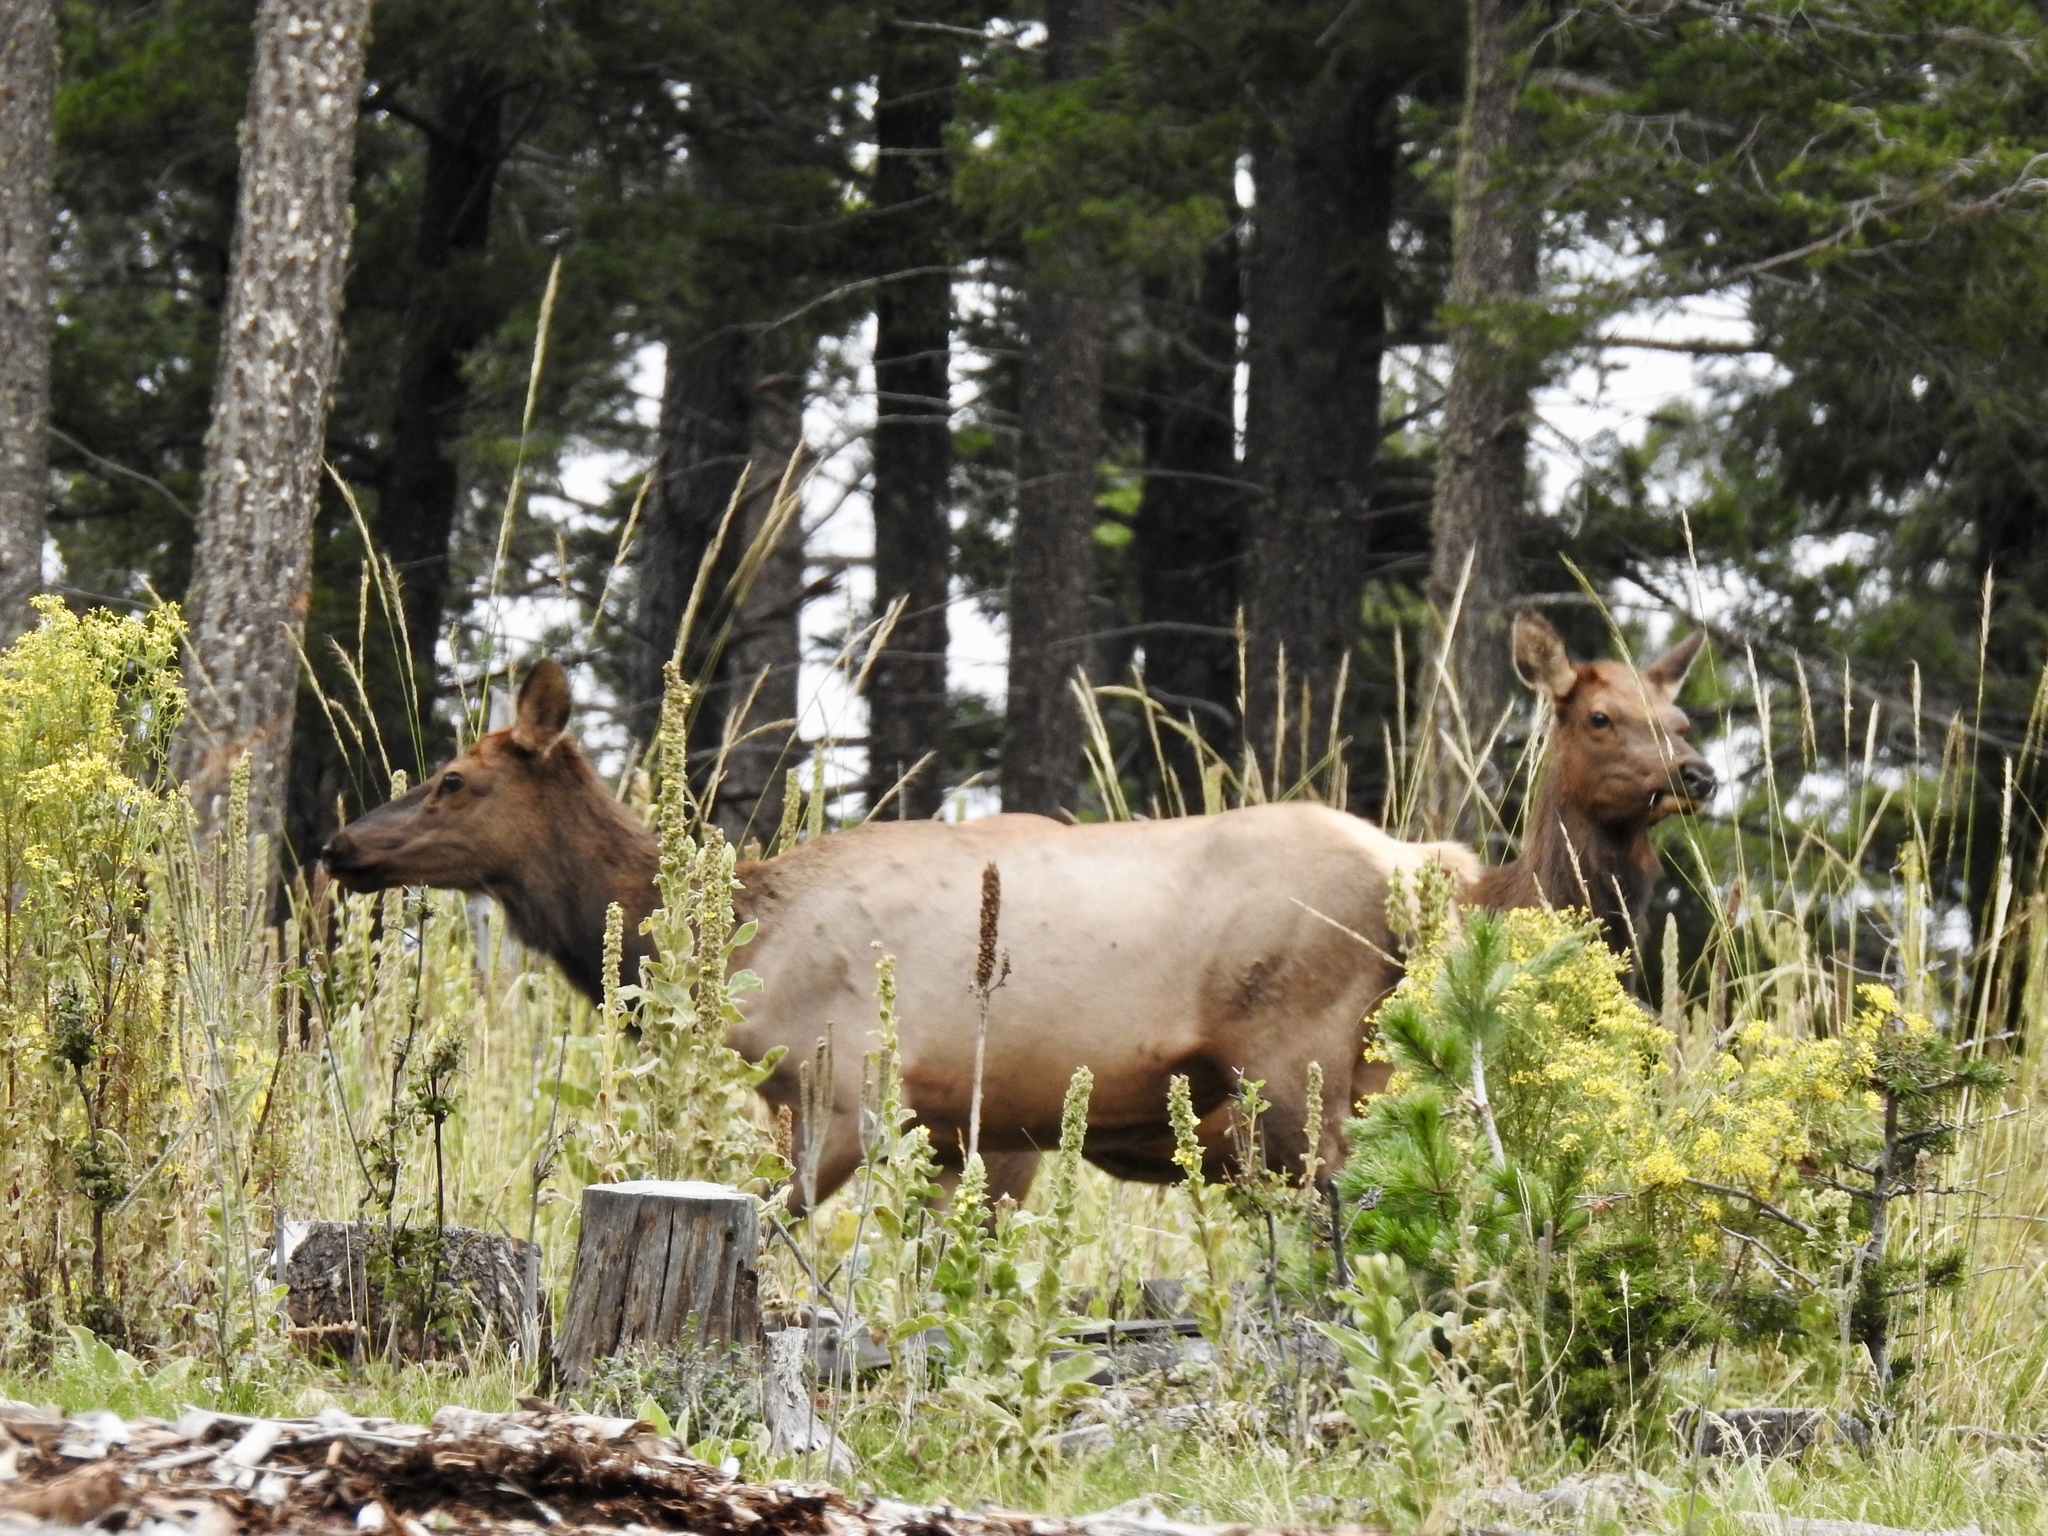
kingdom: Animalia
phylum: Chordata
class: Mammalia
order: Artiodactyla
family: Cervidae
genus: Cervus
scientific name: Cervus elaphus
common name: Red deer
